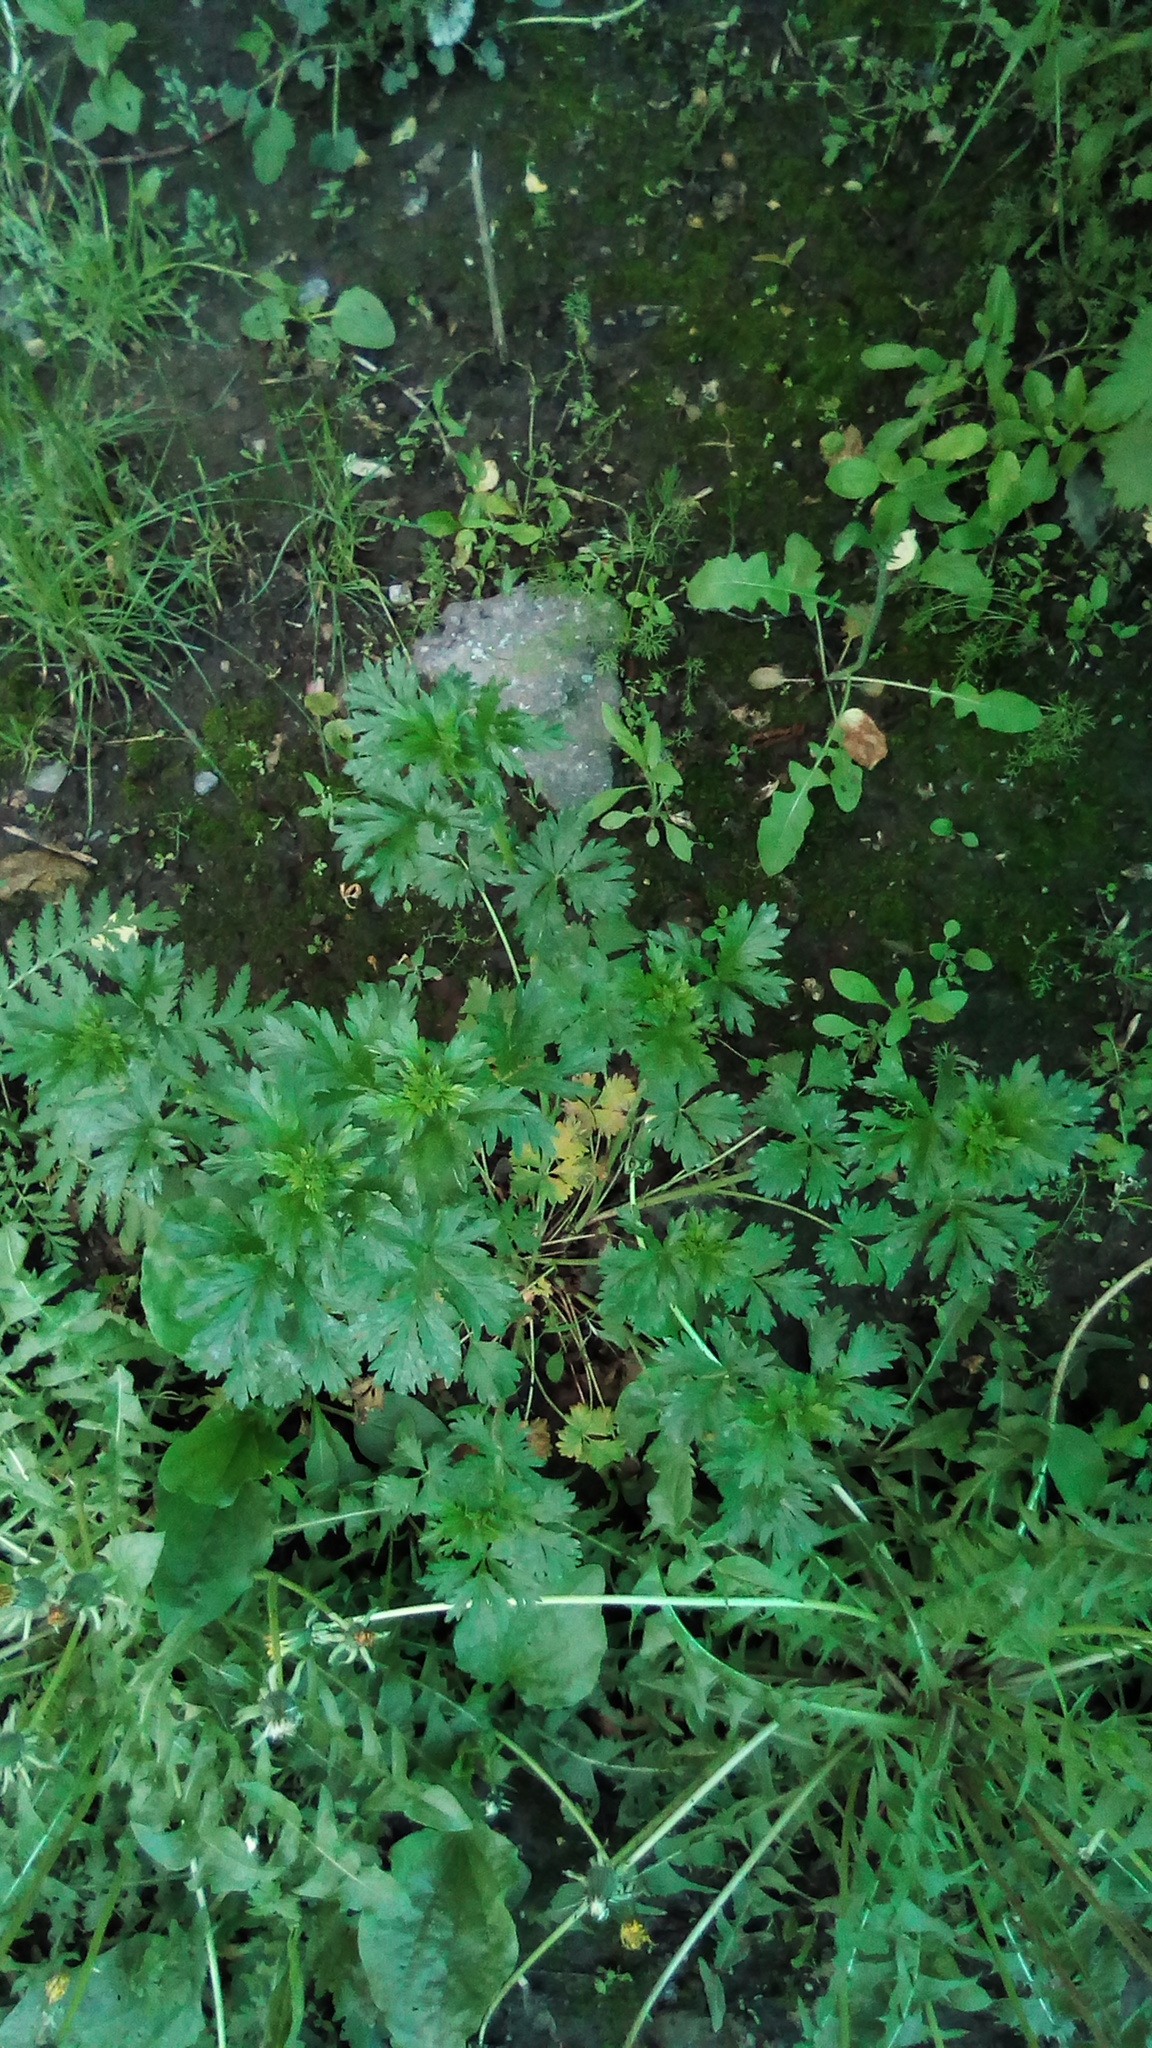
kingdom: Plantae
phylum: Tracheophyta
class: Magnoliopsida
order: Rosales
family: Rosaceae
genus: Potentilla
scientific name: Potentilla intermedia
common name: Downy cinquefoil
